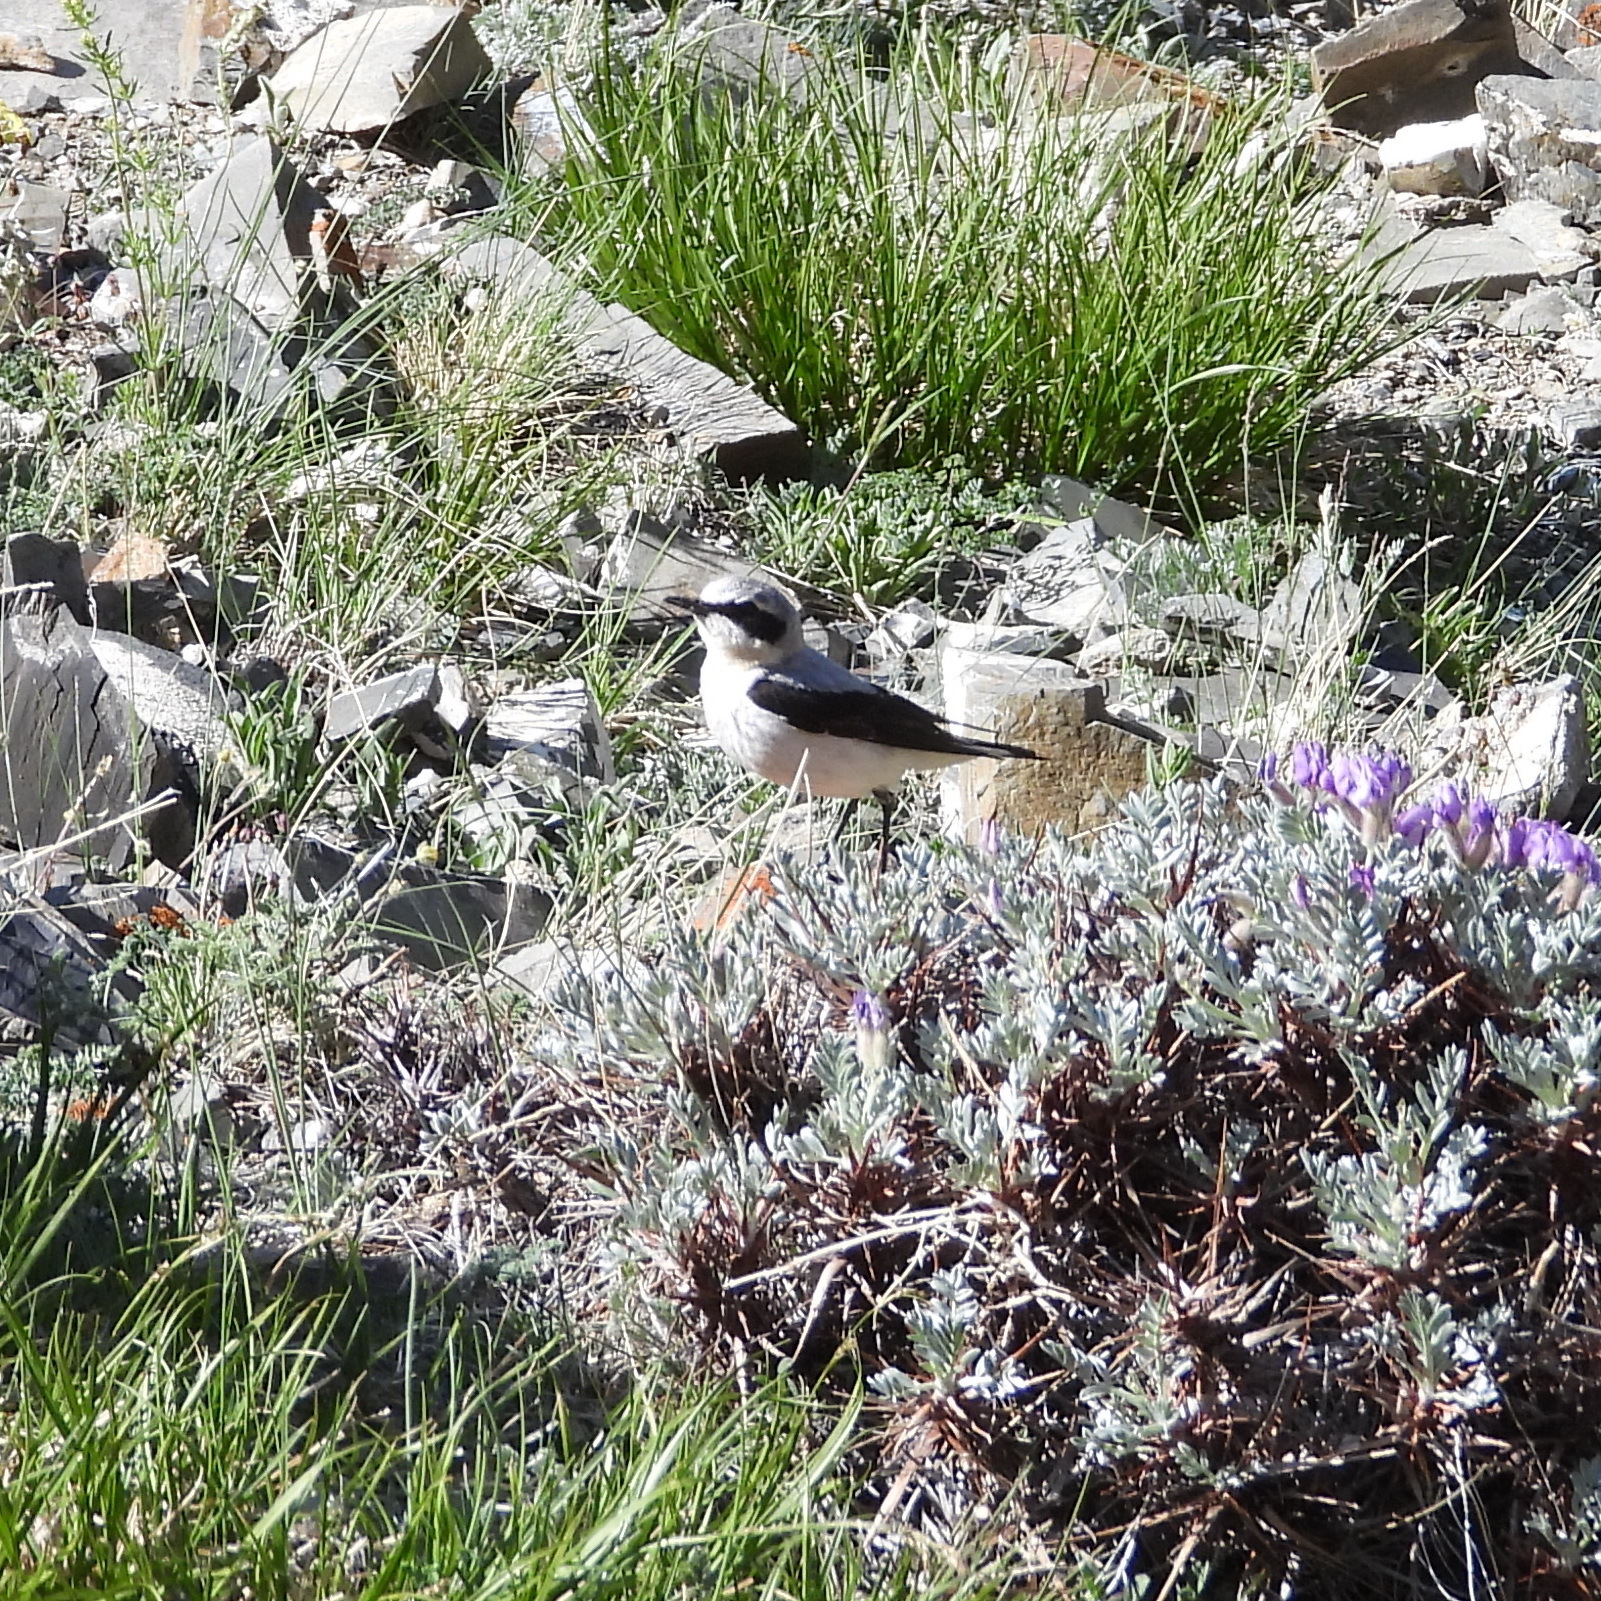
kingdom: Animalia
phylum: Chordata
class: Aves
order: Passeriformes
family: Muscicapidae
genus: Oenanthe
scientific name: Oenanthe oenanthe
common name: Northern wheatear
